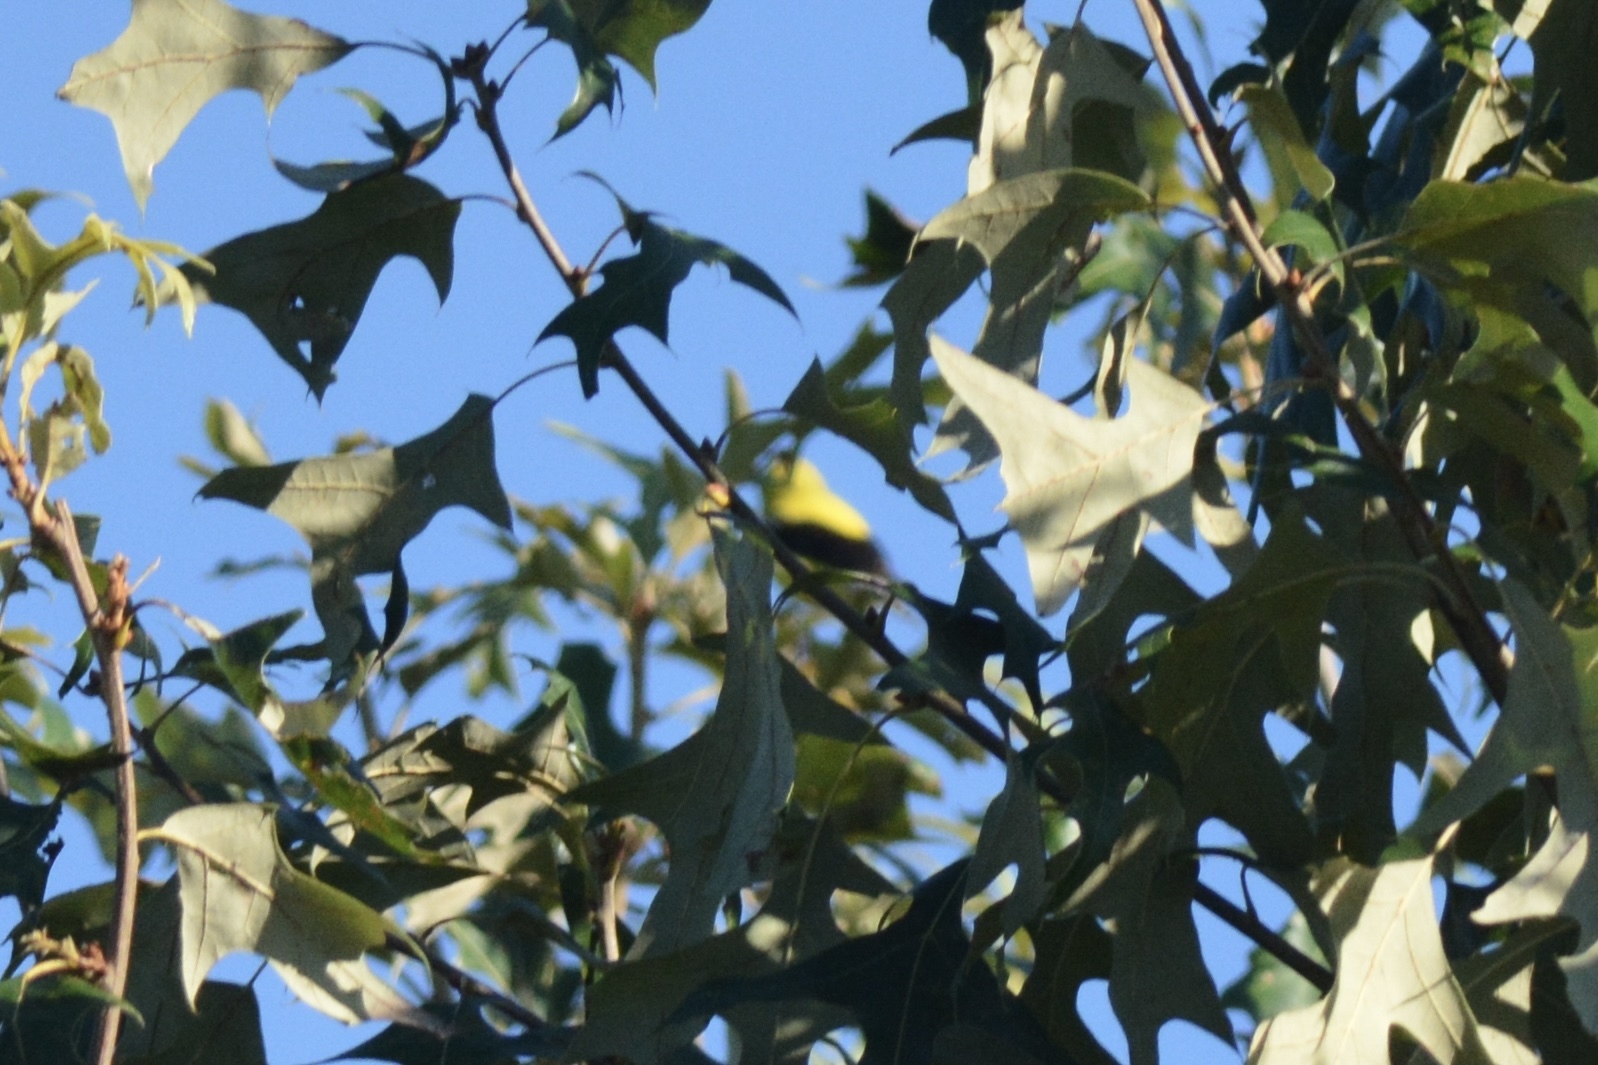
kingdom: Animalia
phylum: Chordata
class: Aves
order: Passeriformes
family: Fringillidae
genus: Spinus
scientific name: Spinus tristis
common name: American goldfinch
